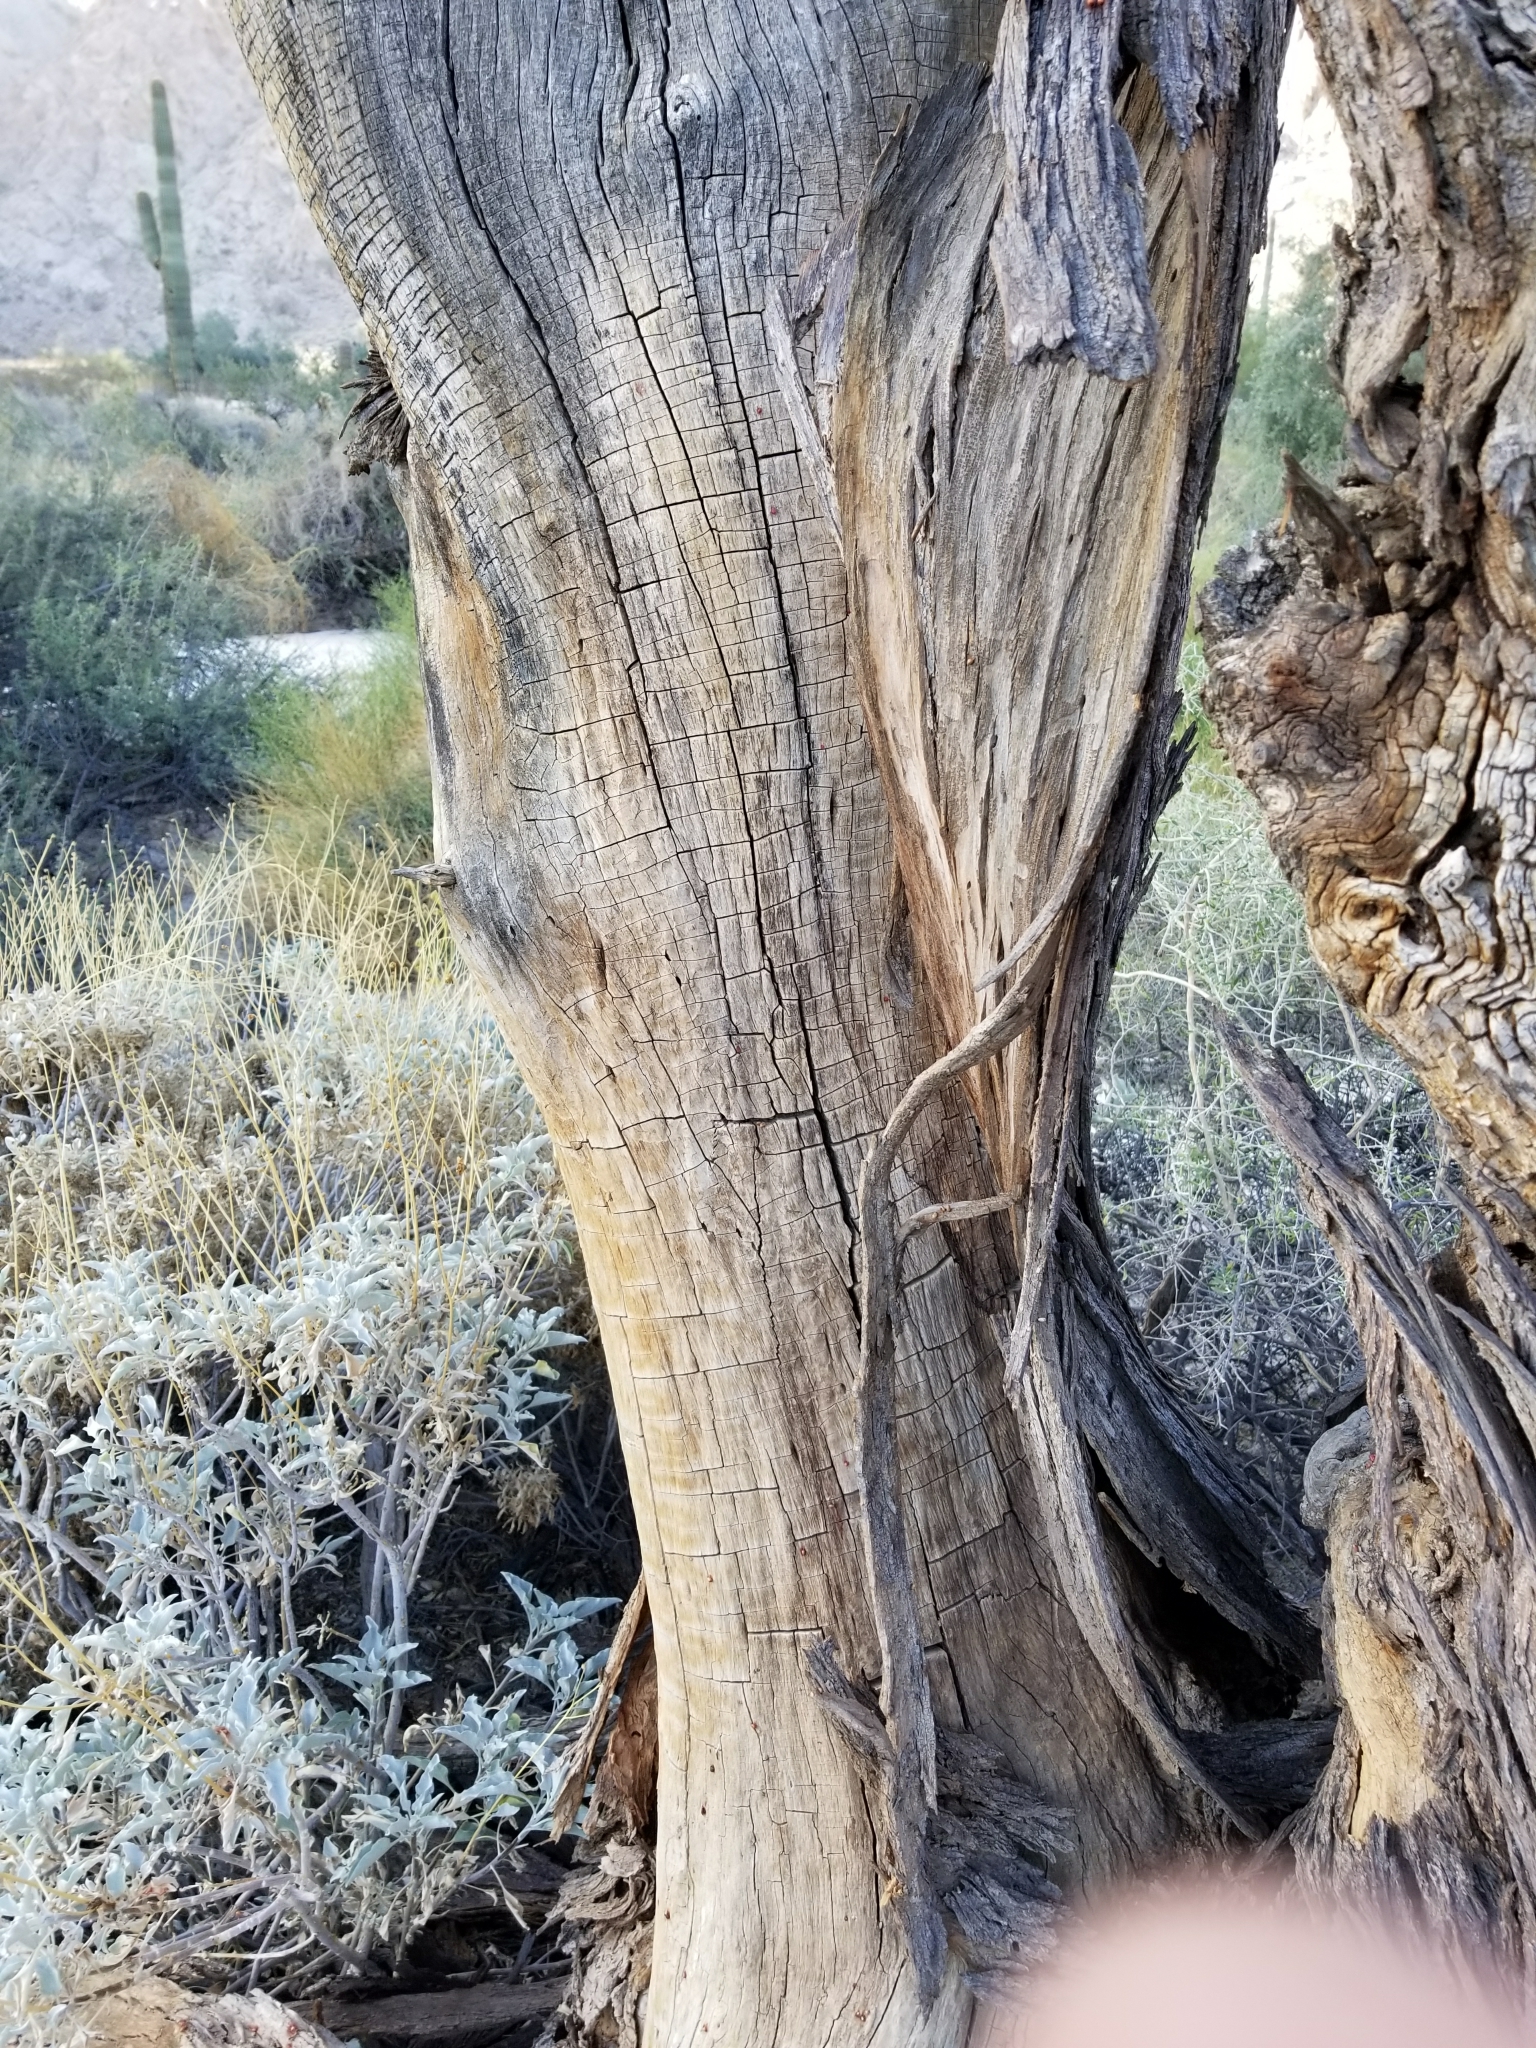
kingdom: Plantae
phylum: Tracheophyta
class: Magnoliopsida
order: Fabales
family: Fabaceae
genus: Olneya
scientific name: Olneya tesota
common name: Desert ironwood
